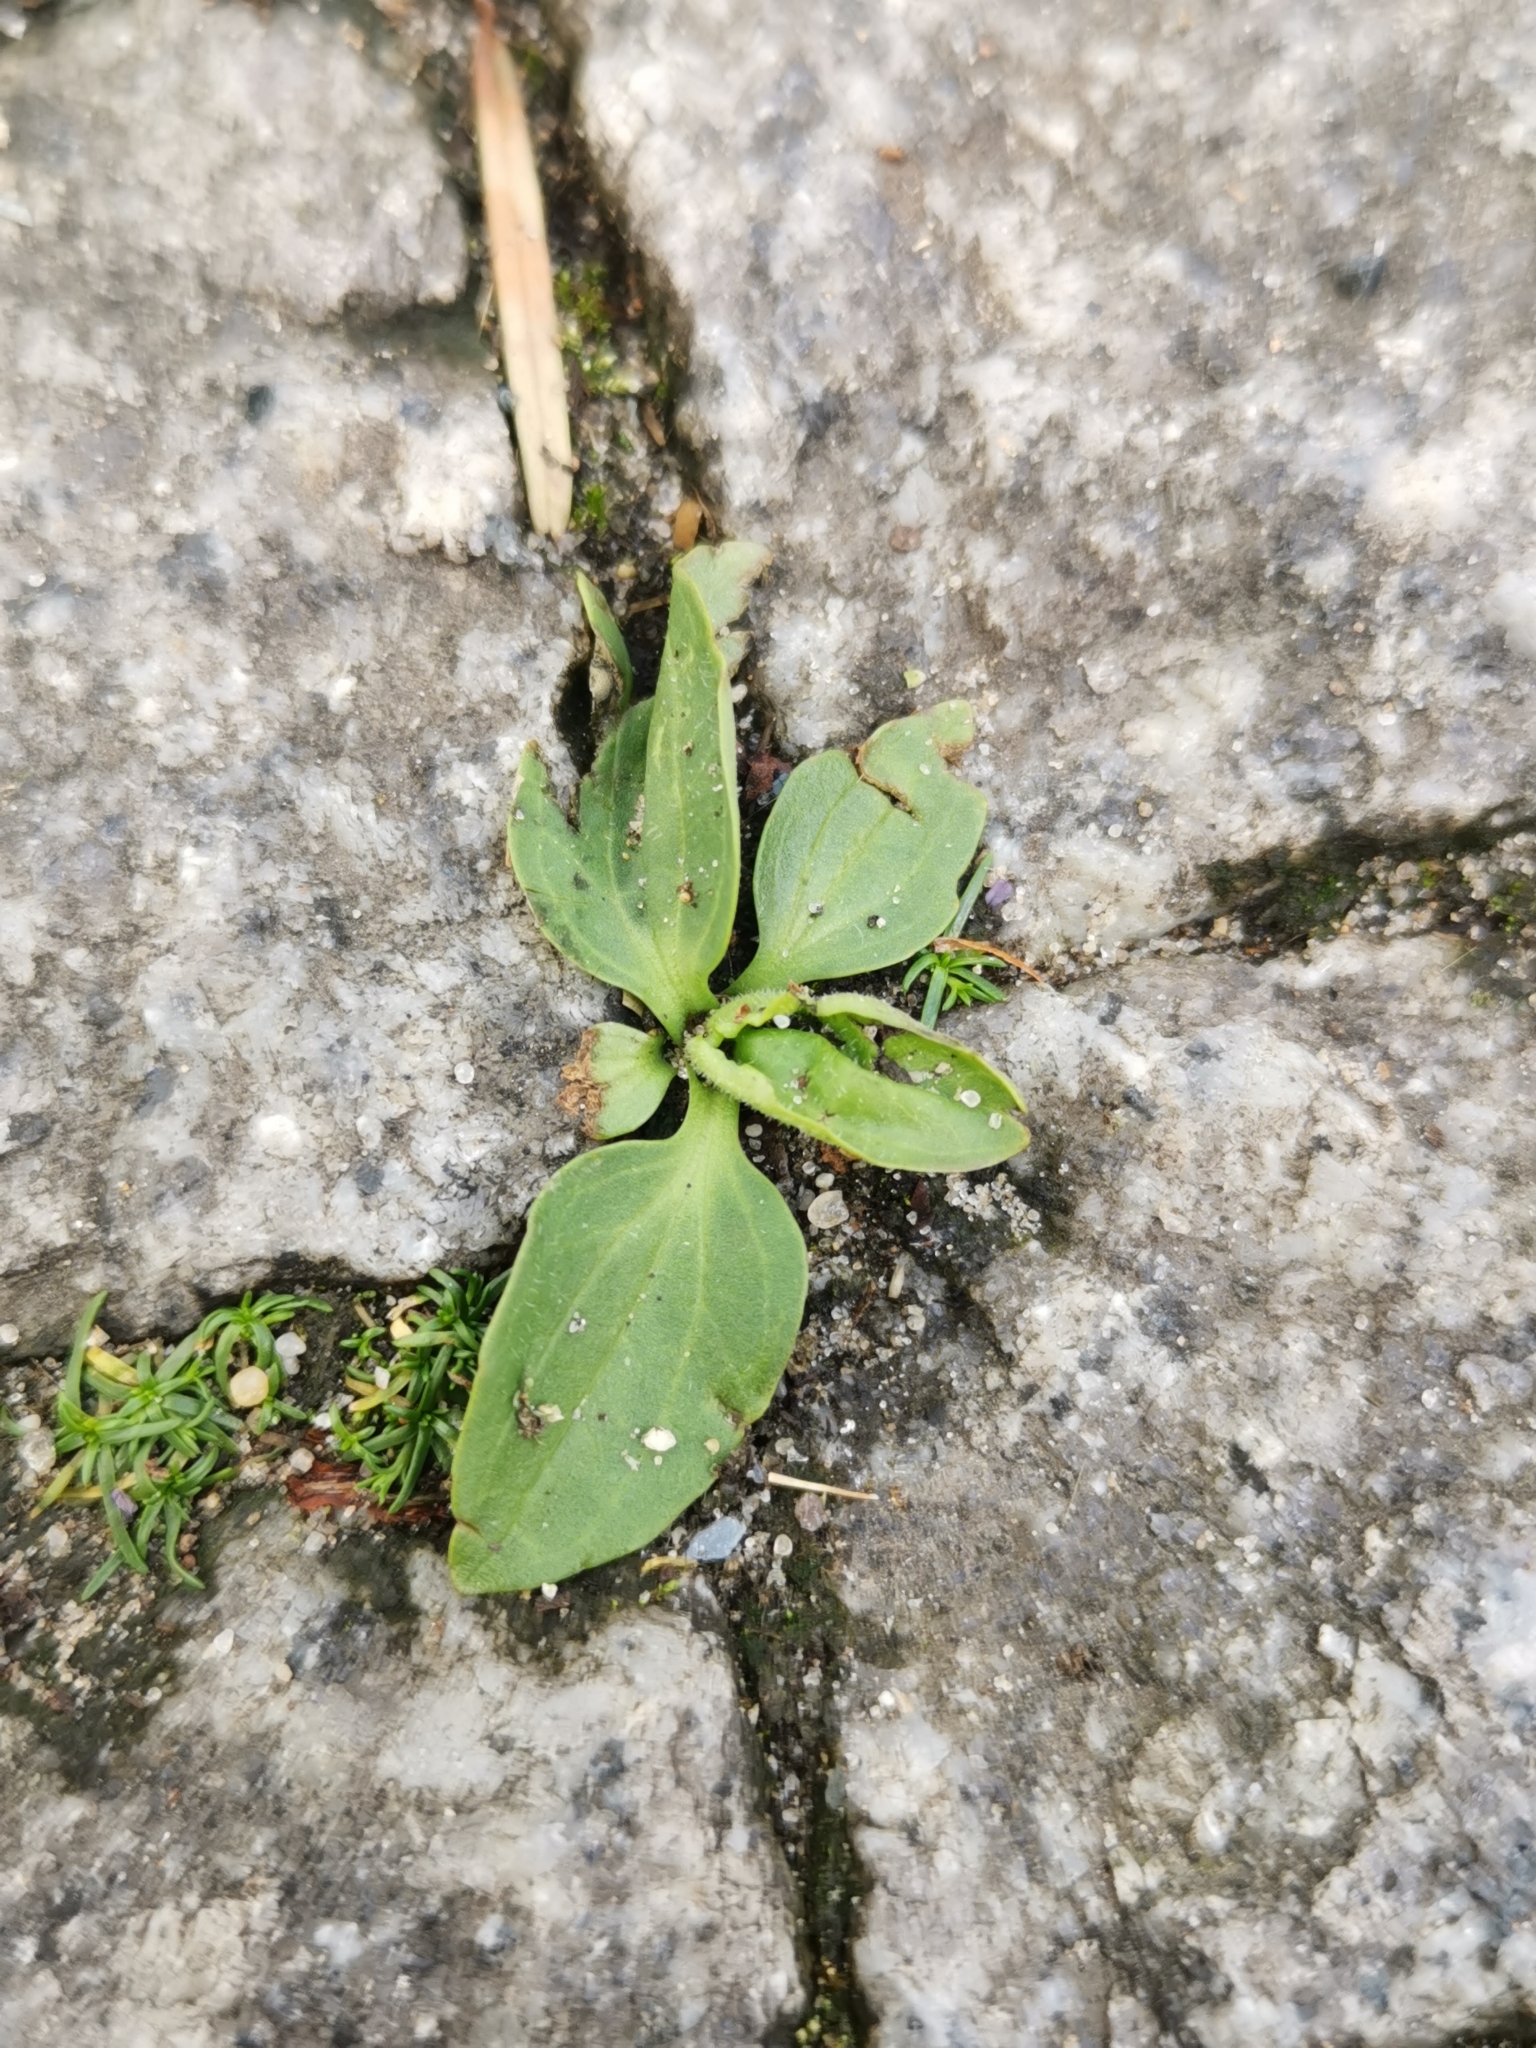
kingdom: Plantae
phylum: Tracheophyta
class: Magnoliopsida
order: Lamiales
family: Plantaginaceae
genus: Plantago
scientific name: Plantago major
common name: Common plantain
